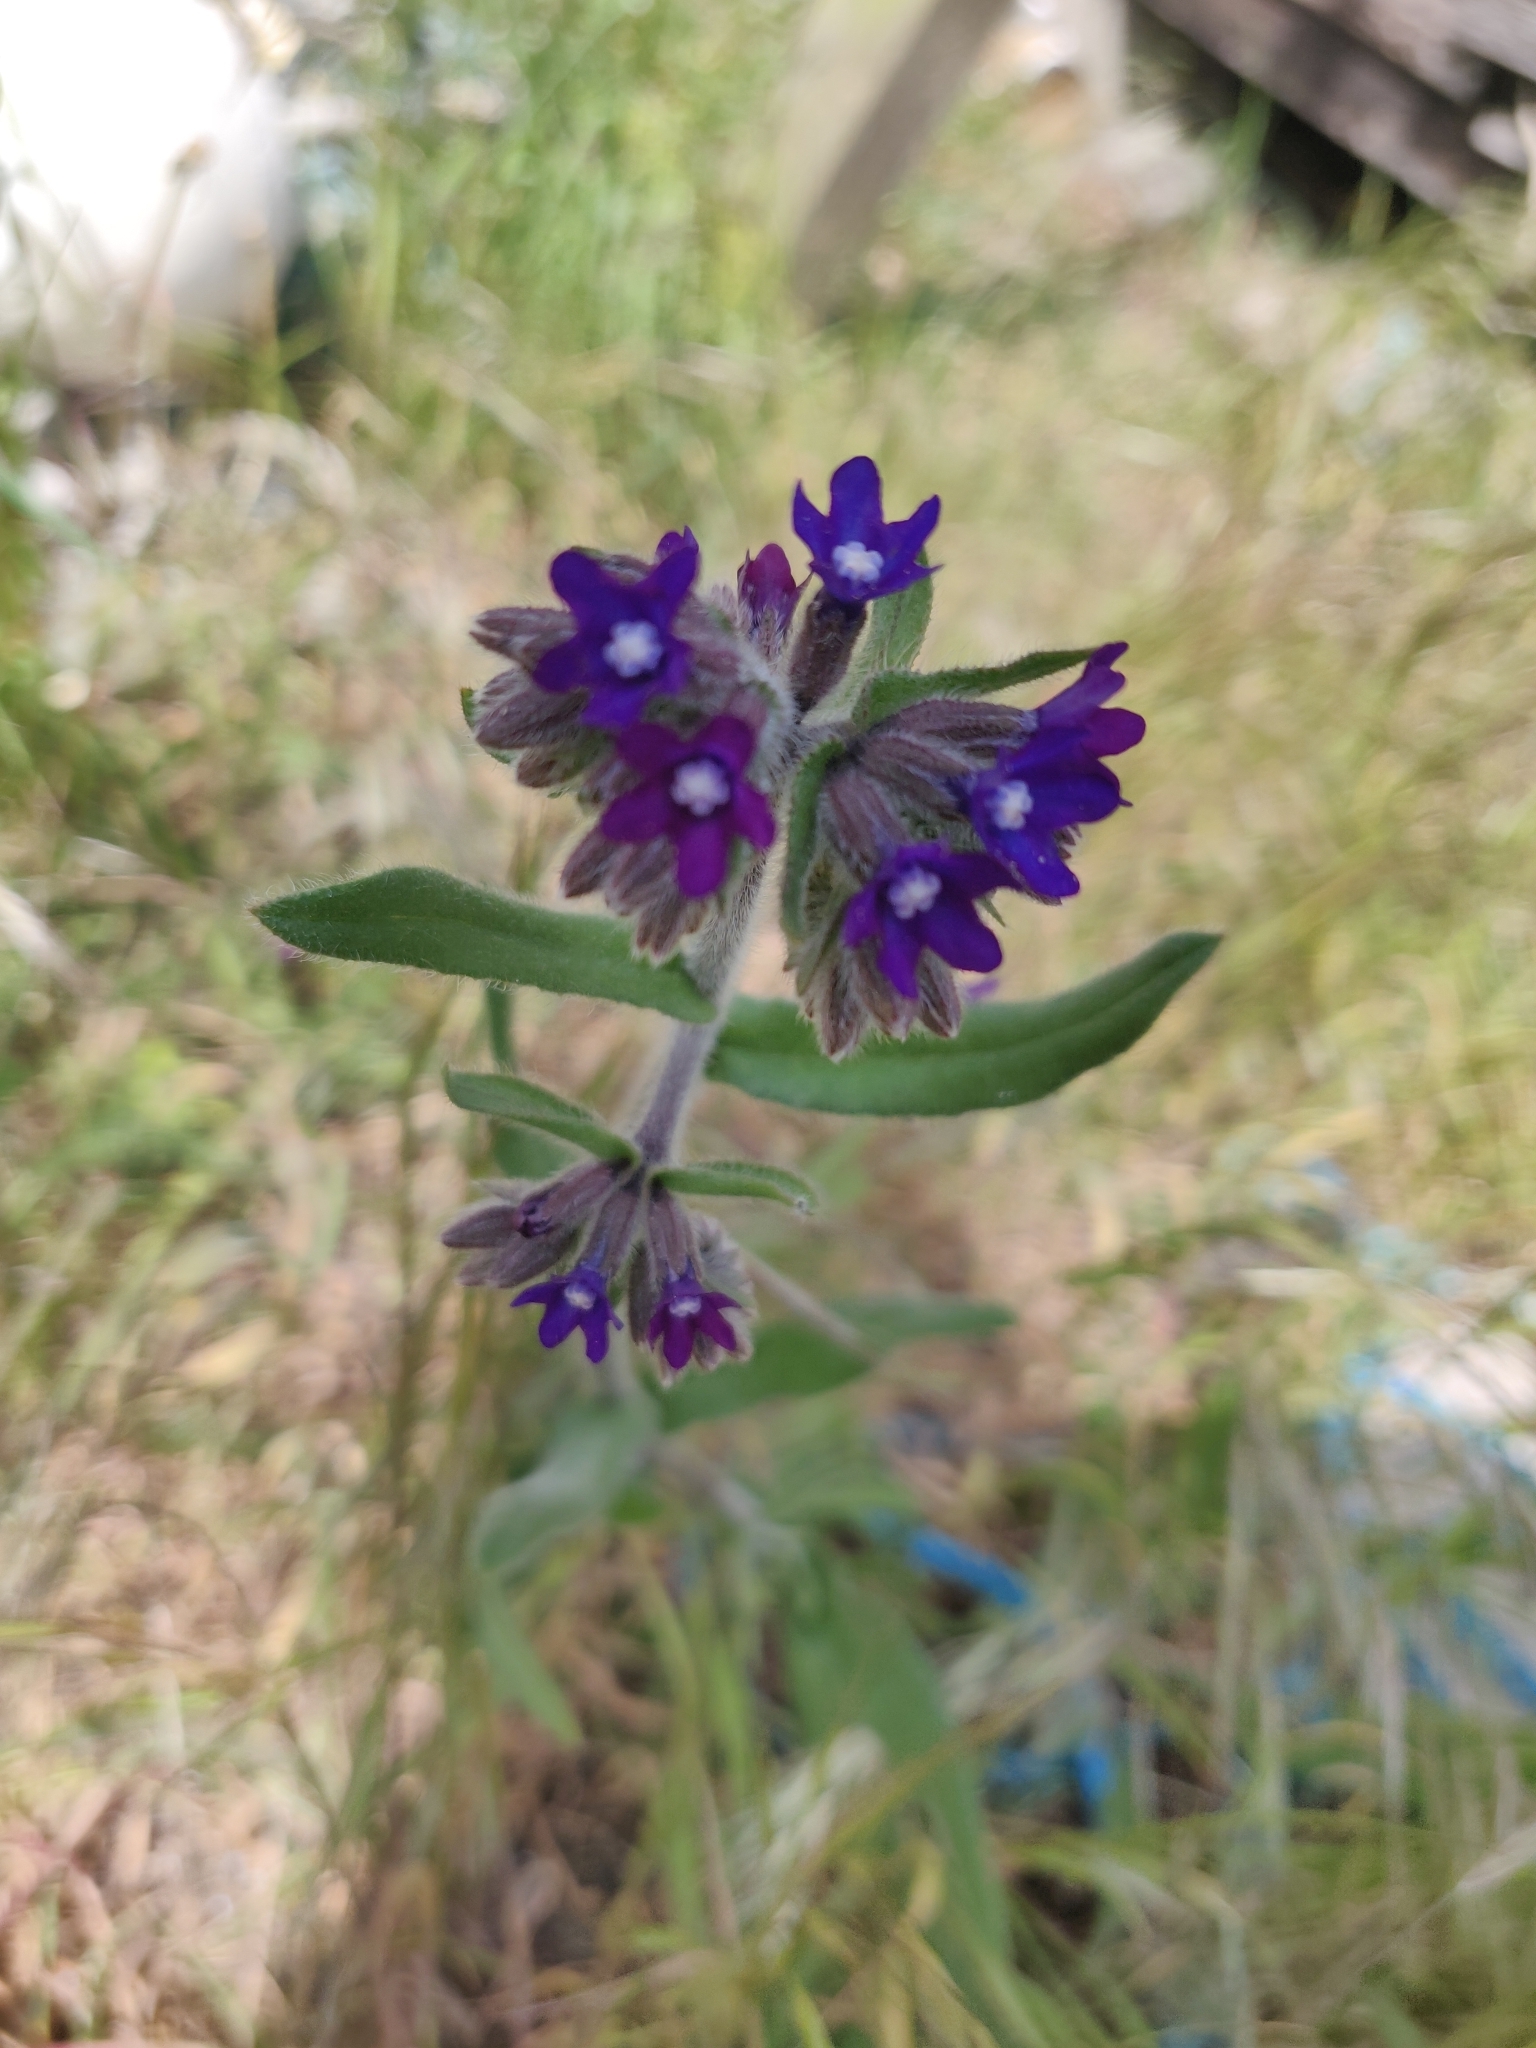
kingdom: Plantae
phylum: Tracheophyta
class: Magnoliopsida
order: Boraginales
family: Boraginaceae
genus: Anchusa
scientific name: Anchusa officinalis
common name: Alkanet
